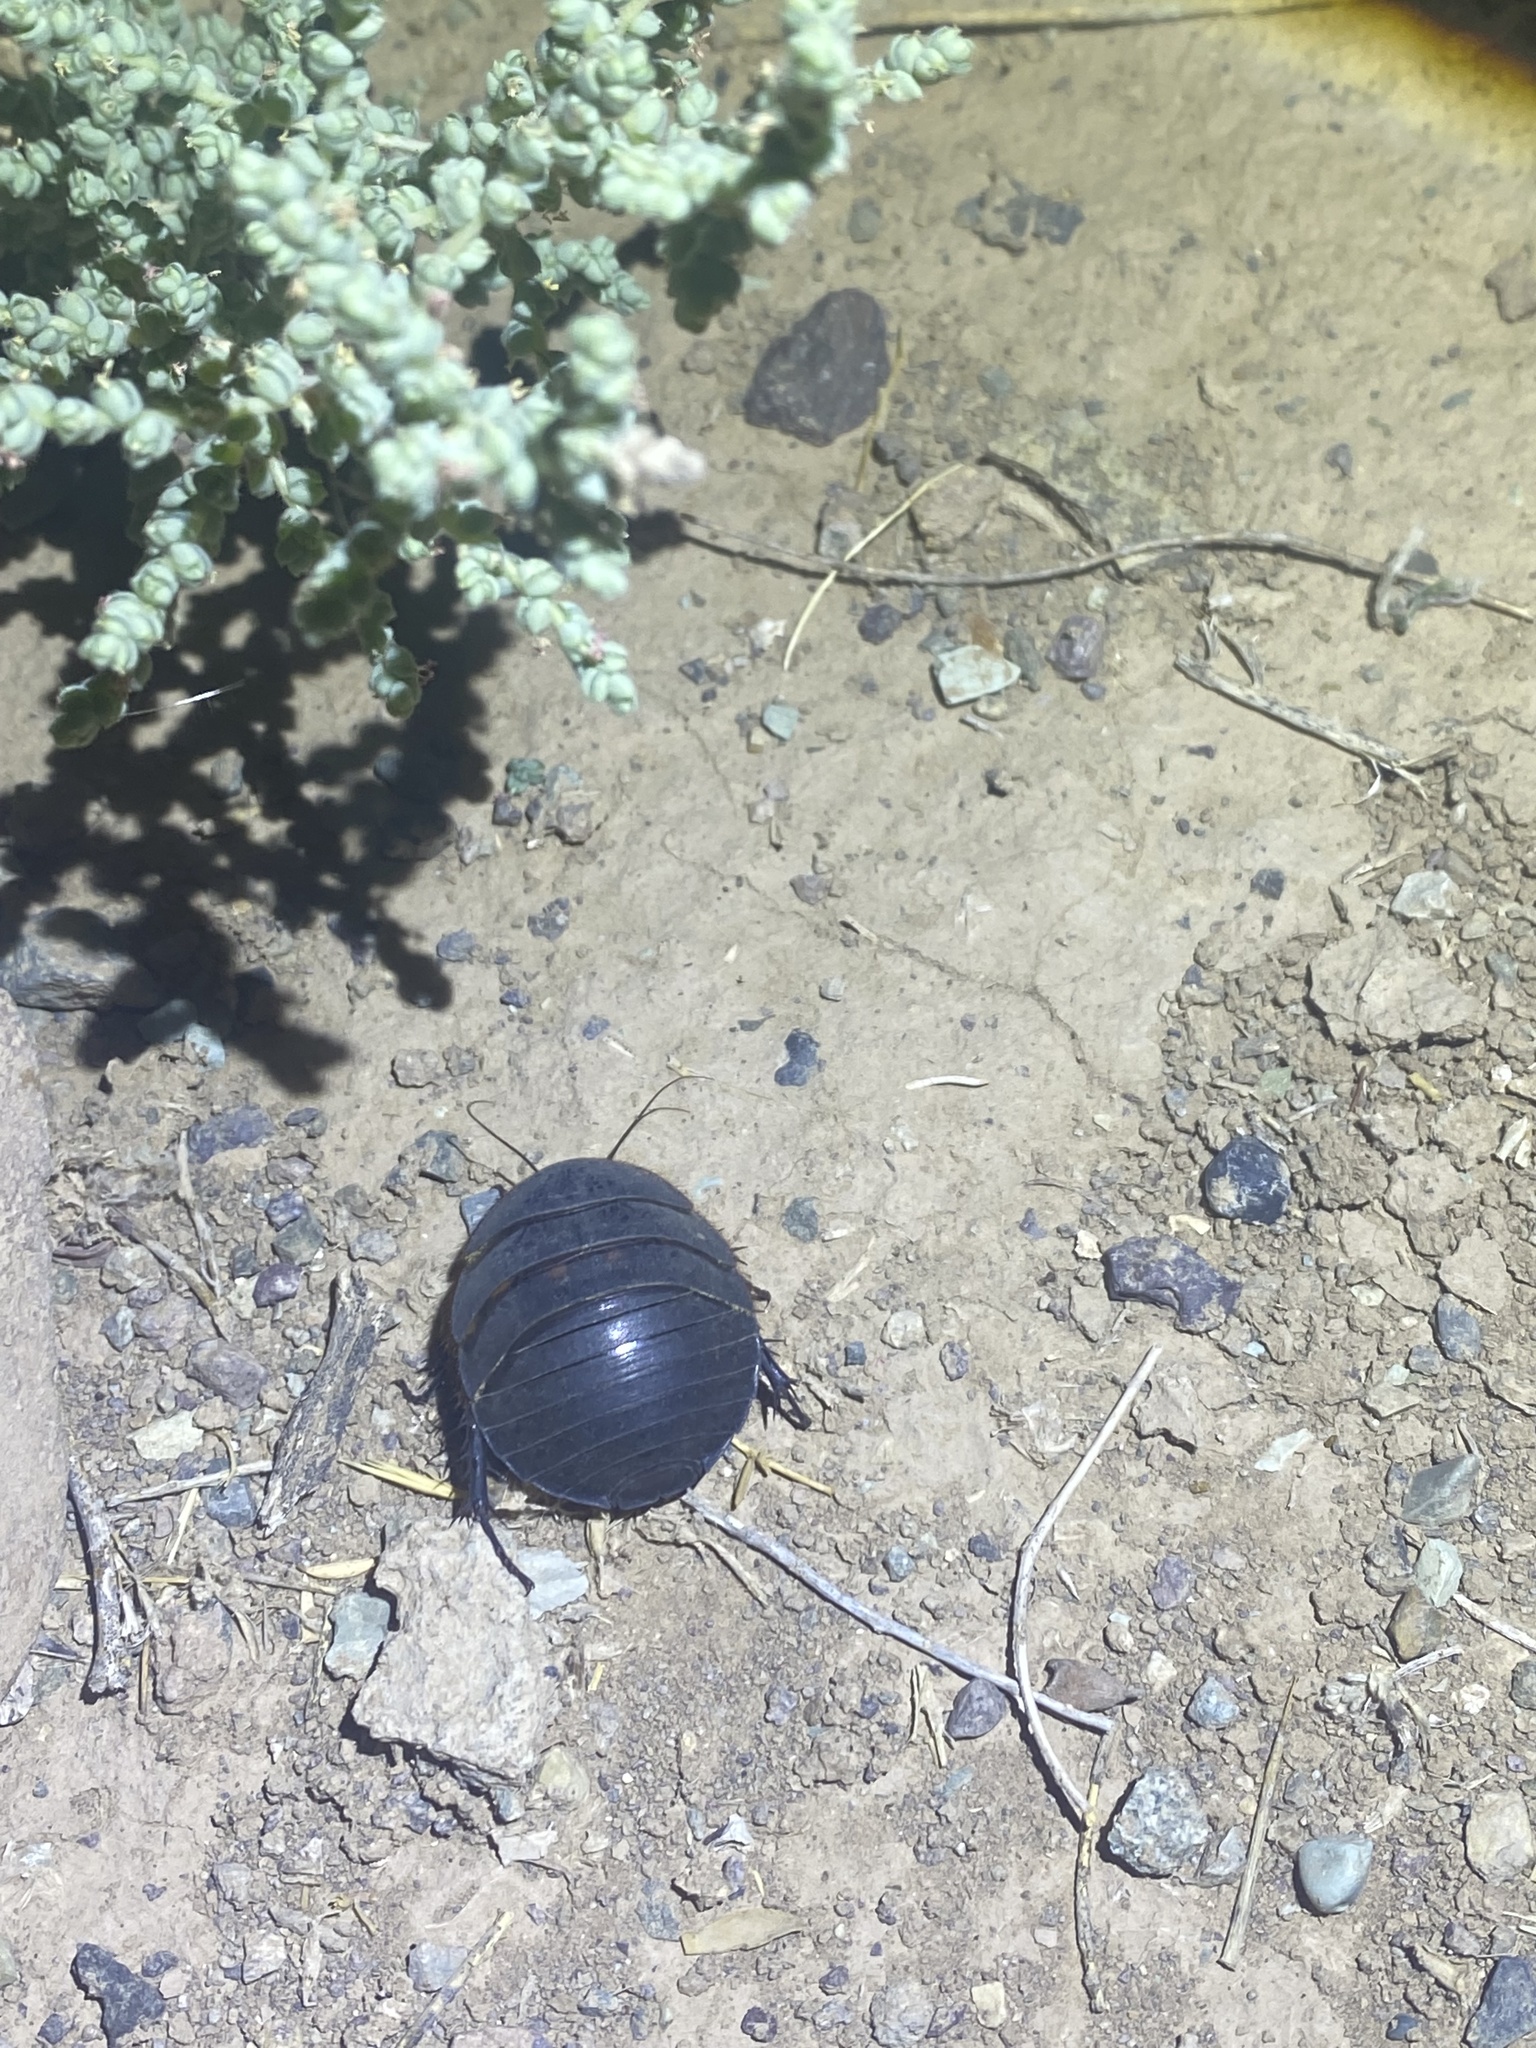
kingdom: Animalia
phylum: Arthropoda
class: Insecta
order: Blattodea
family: Corydiidae
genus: Polyphaga
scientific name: Polyphaga aegyptiaca
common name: Egyptian cockroach
